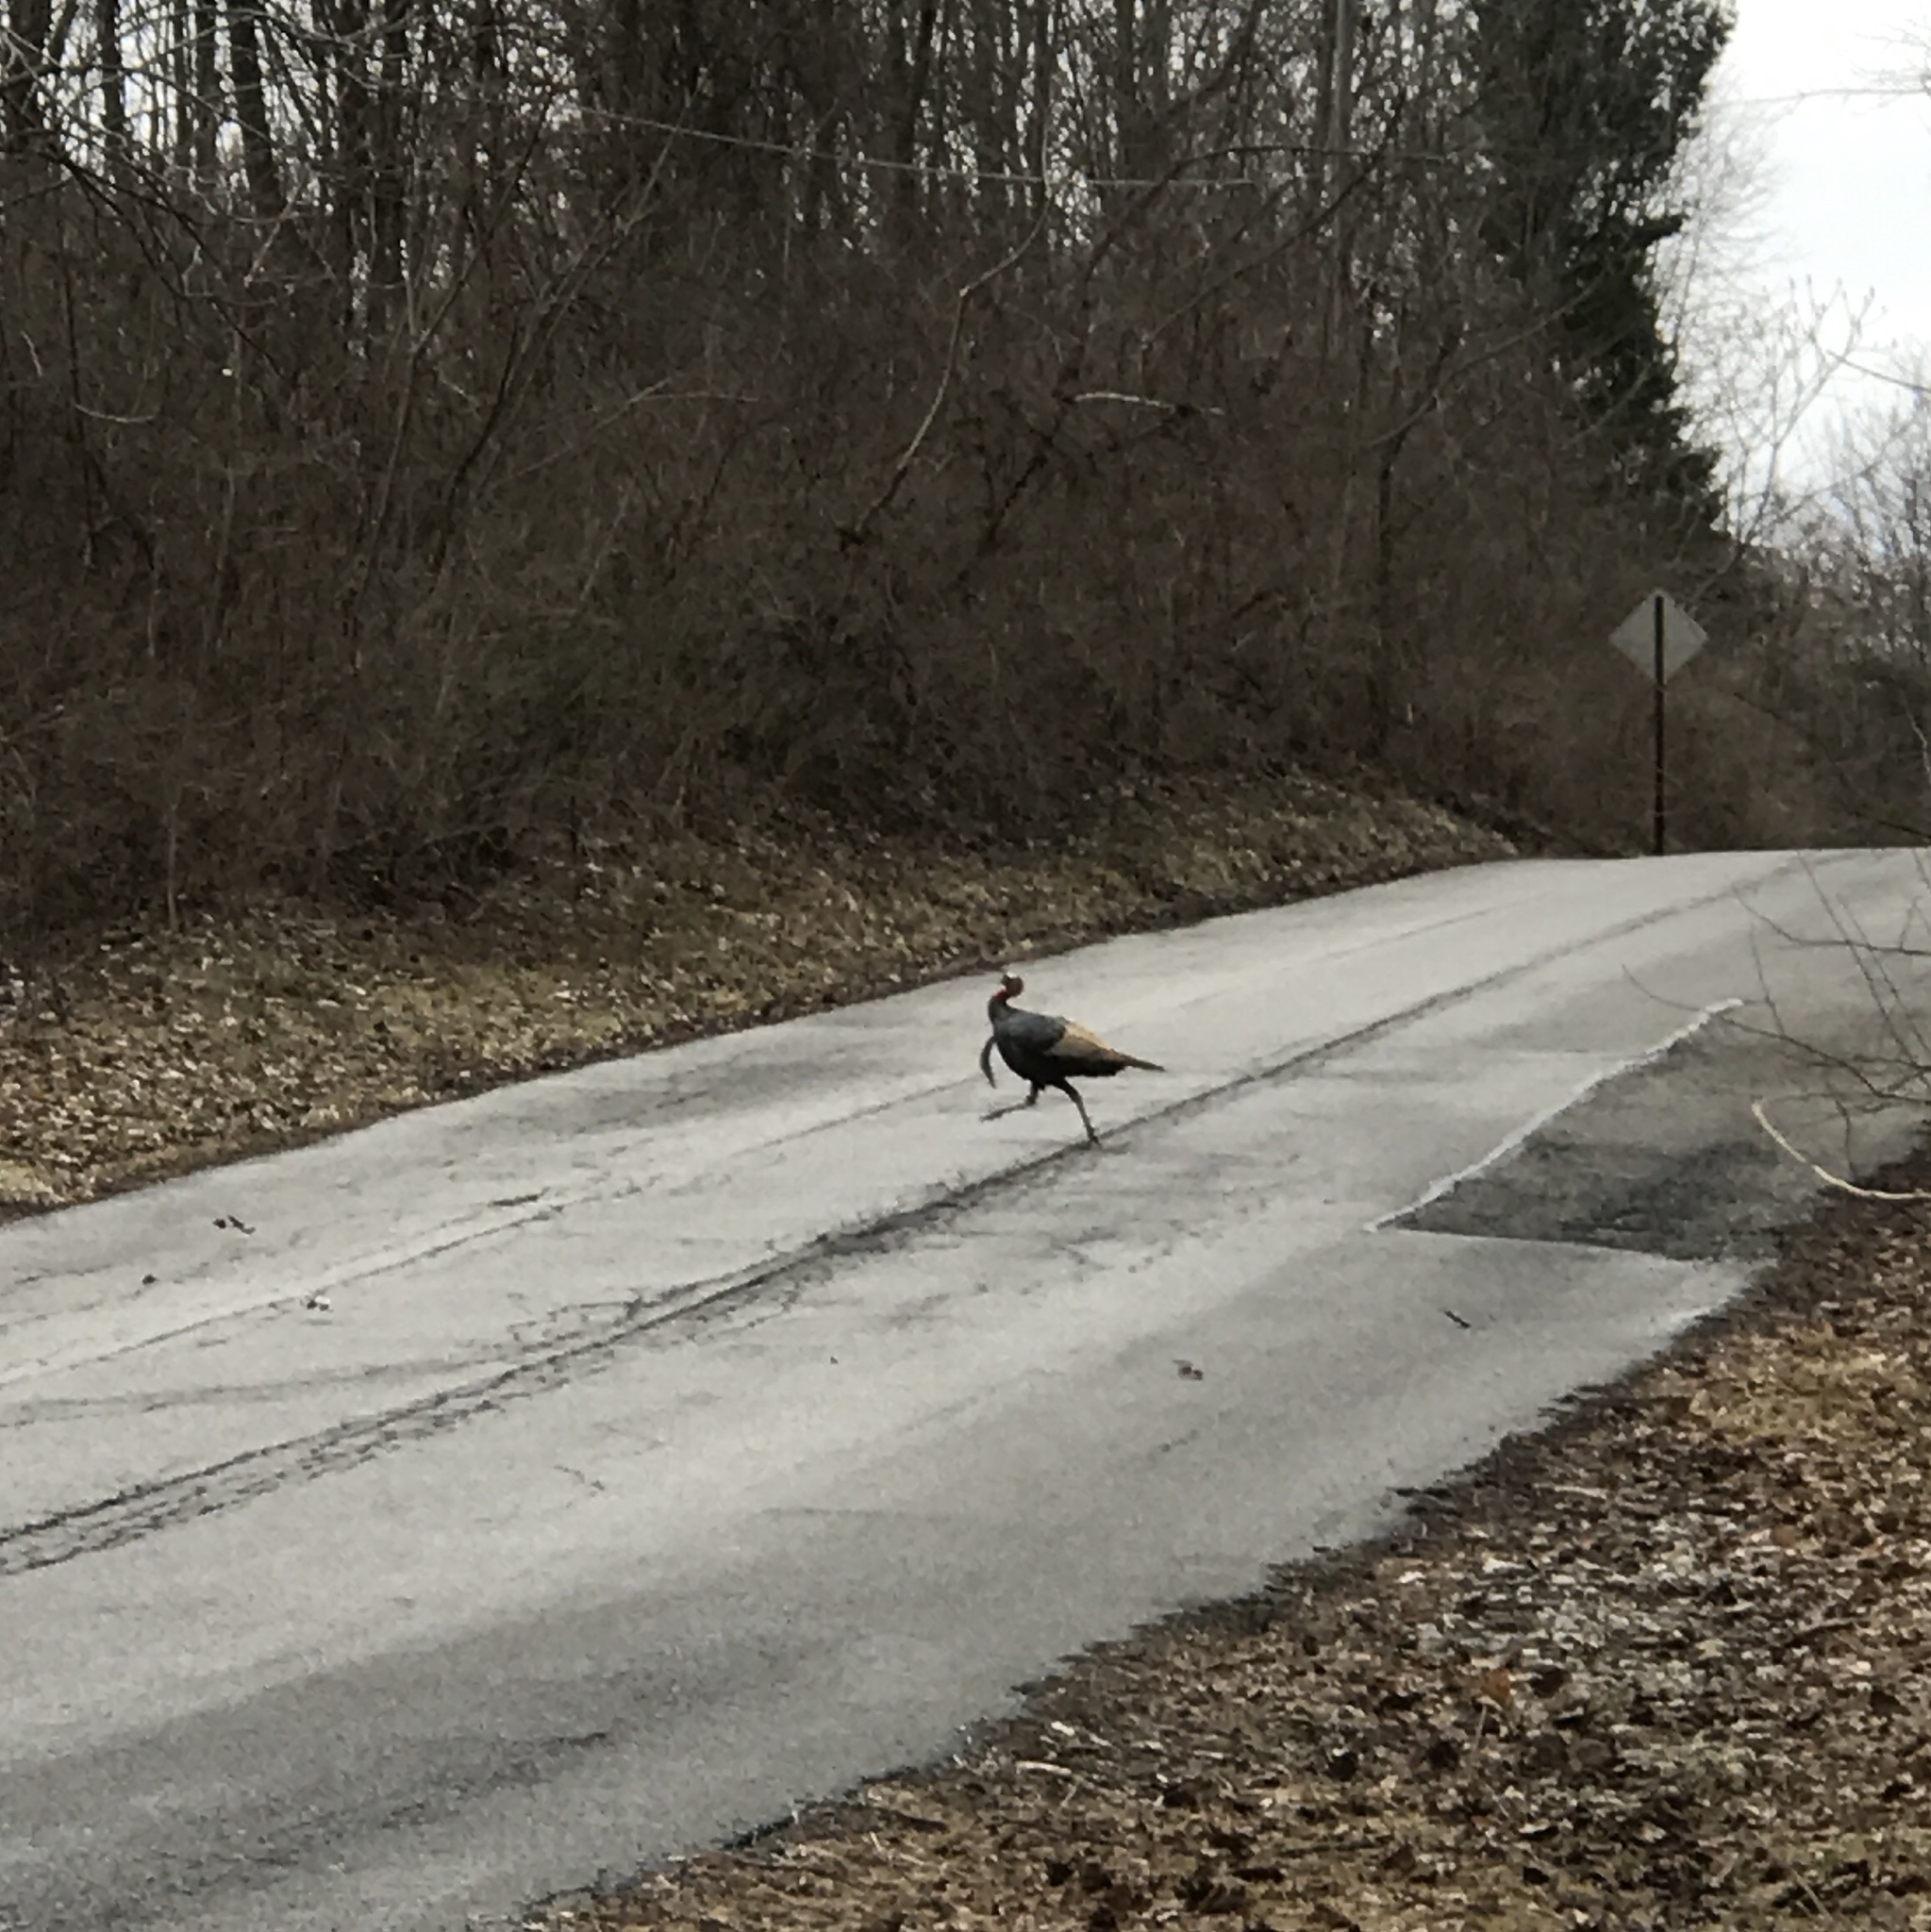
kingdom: Animalia
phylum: Chordata
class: Aves
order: Galliformes
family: Phasianidae
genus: Meleagris
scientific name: Meleagris gallopavo
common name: Wild turkey
